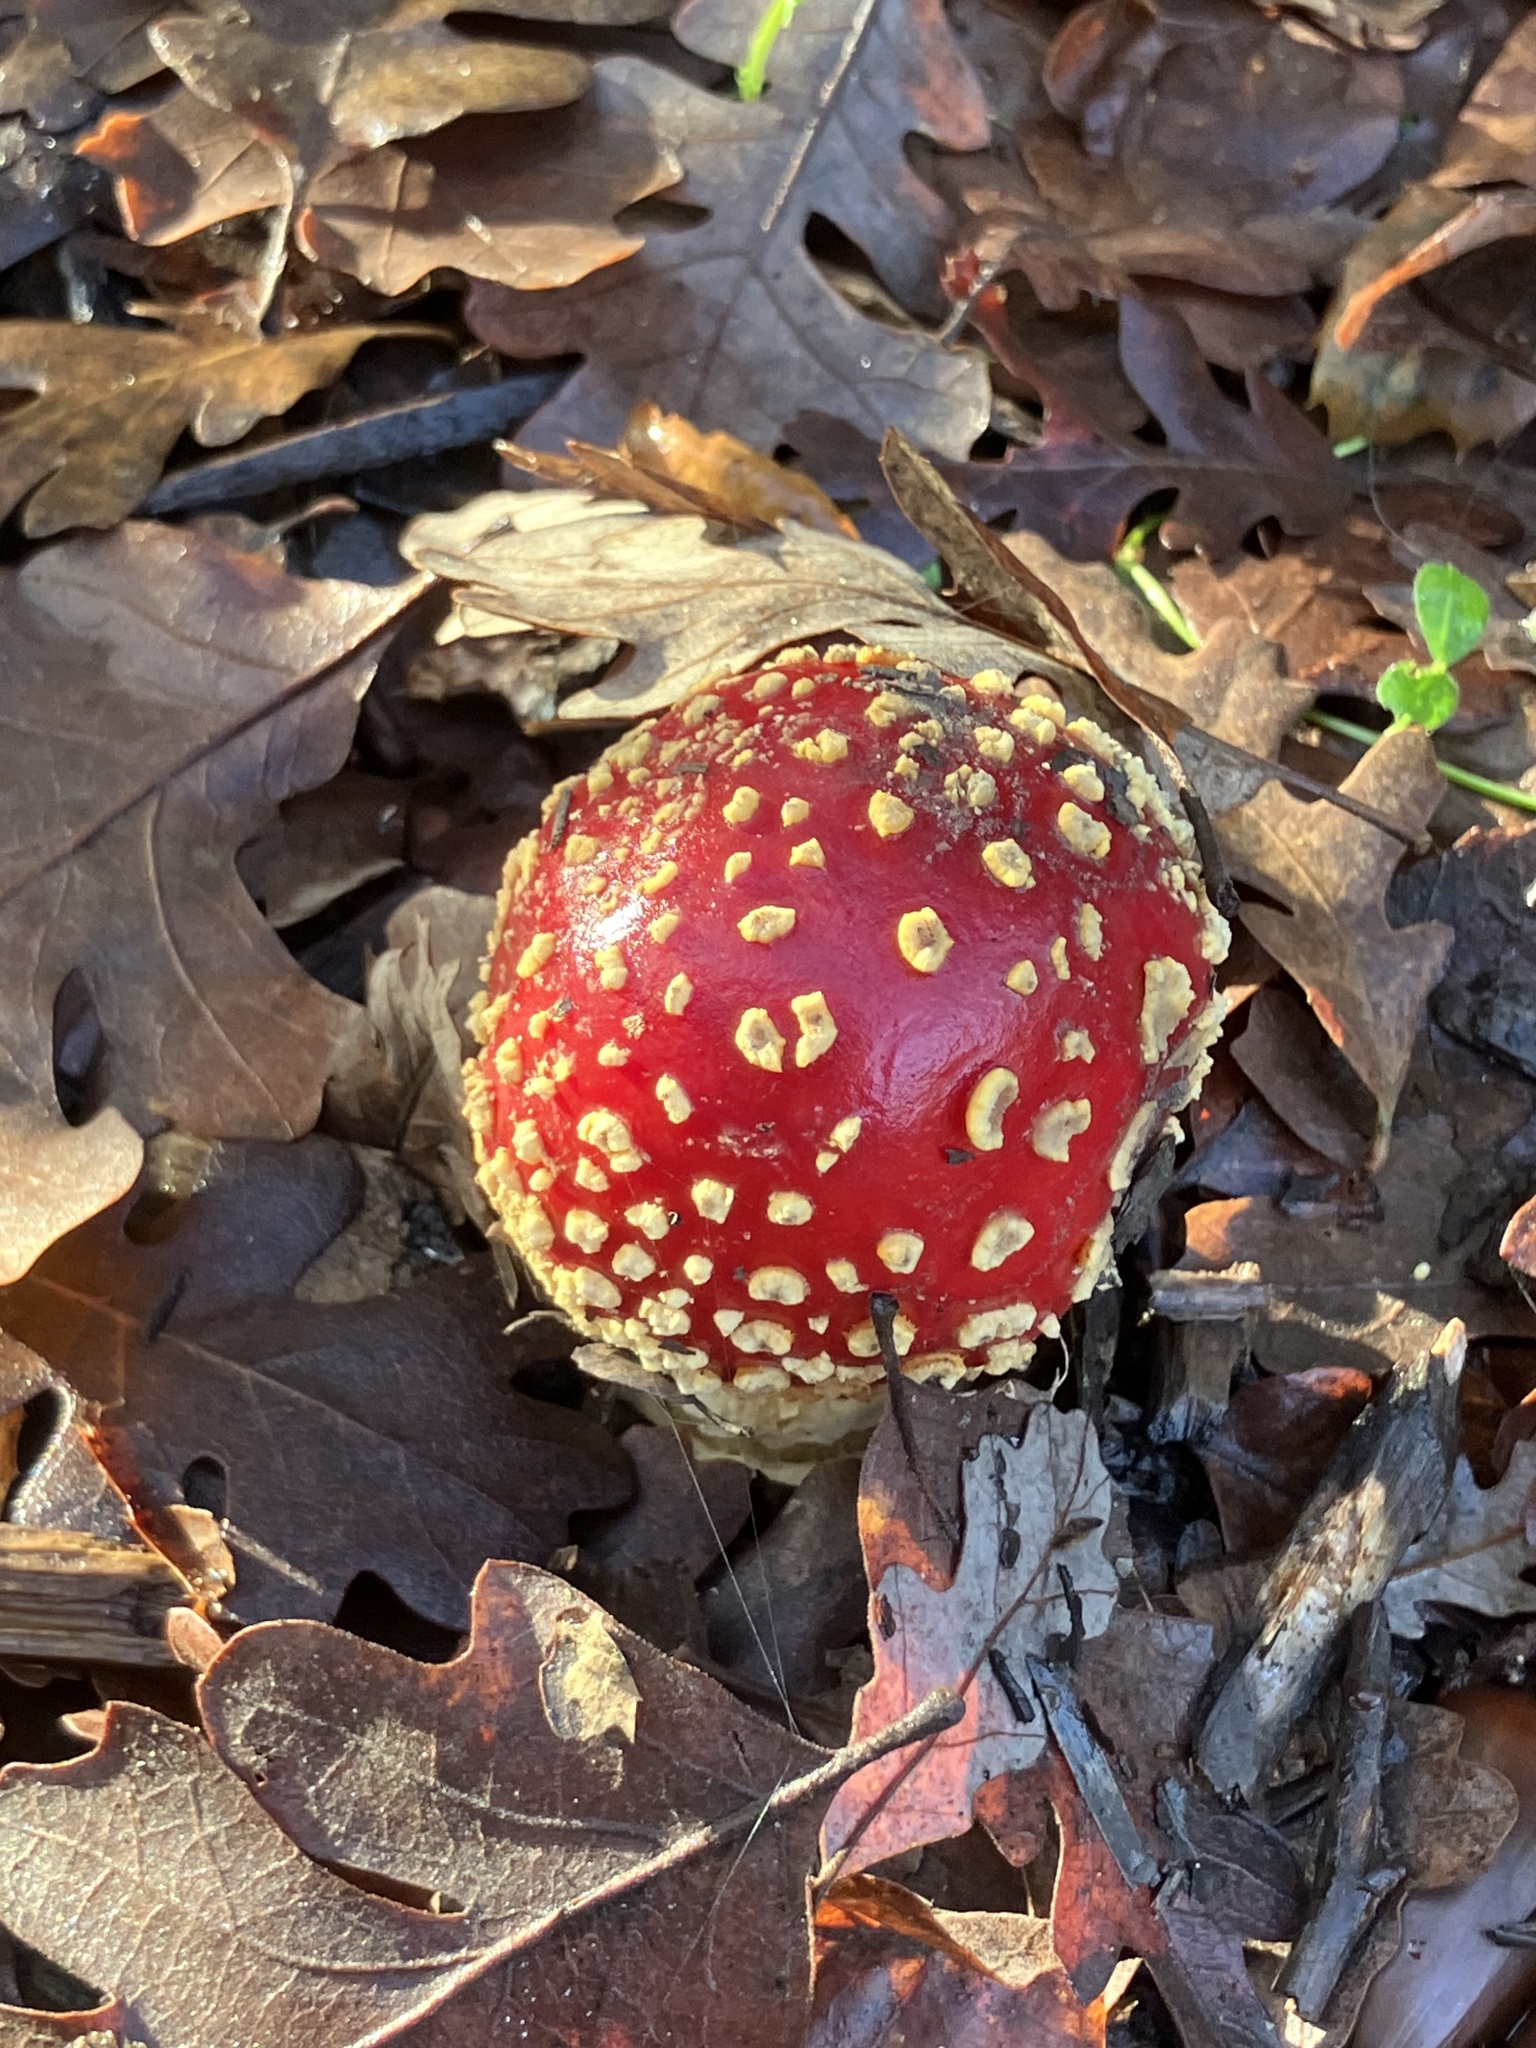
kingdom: Fungi
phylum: Basidiomycota
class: Agaricomycetes
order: Agaricales
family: Amanitaceae
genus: Amanita
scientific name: Amanita muscaria
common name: Fly agaric
